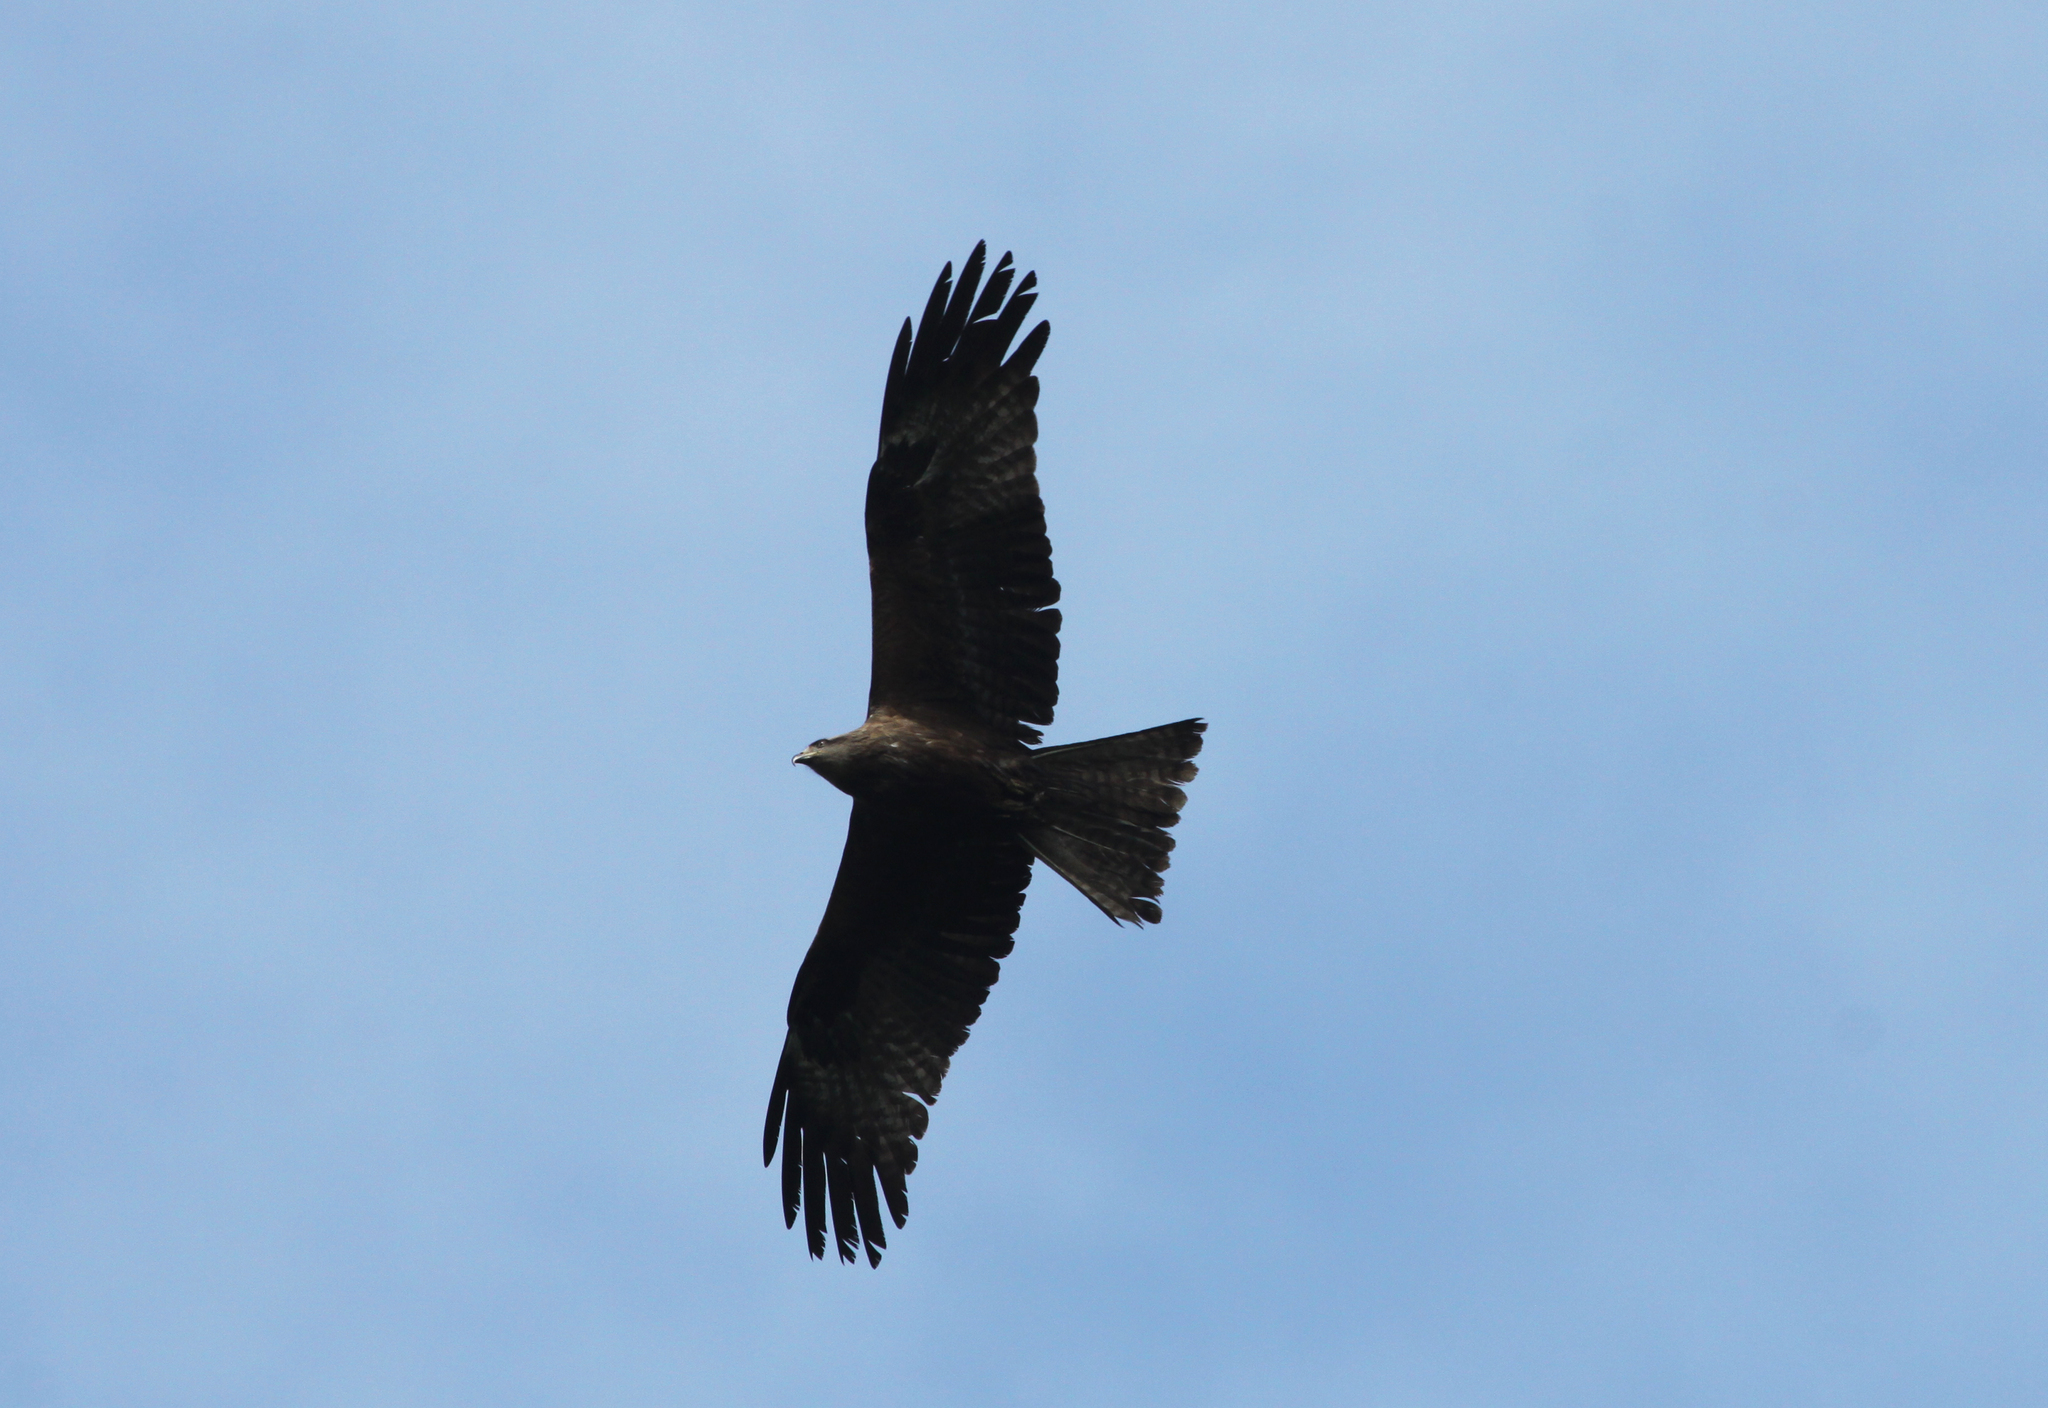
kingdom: Animalia
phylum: Chordata
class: Aves
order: Accipitriformes
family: Accipitridae
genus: Milvus
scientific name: Milvus migrans
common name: Black kite
